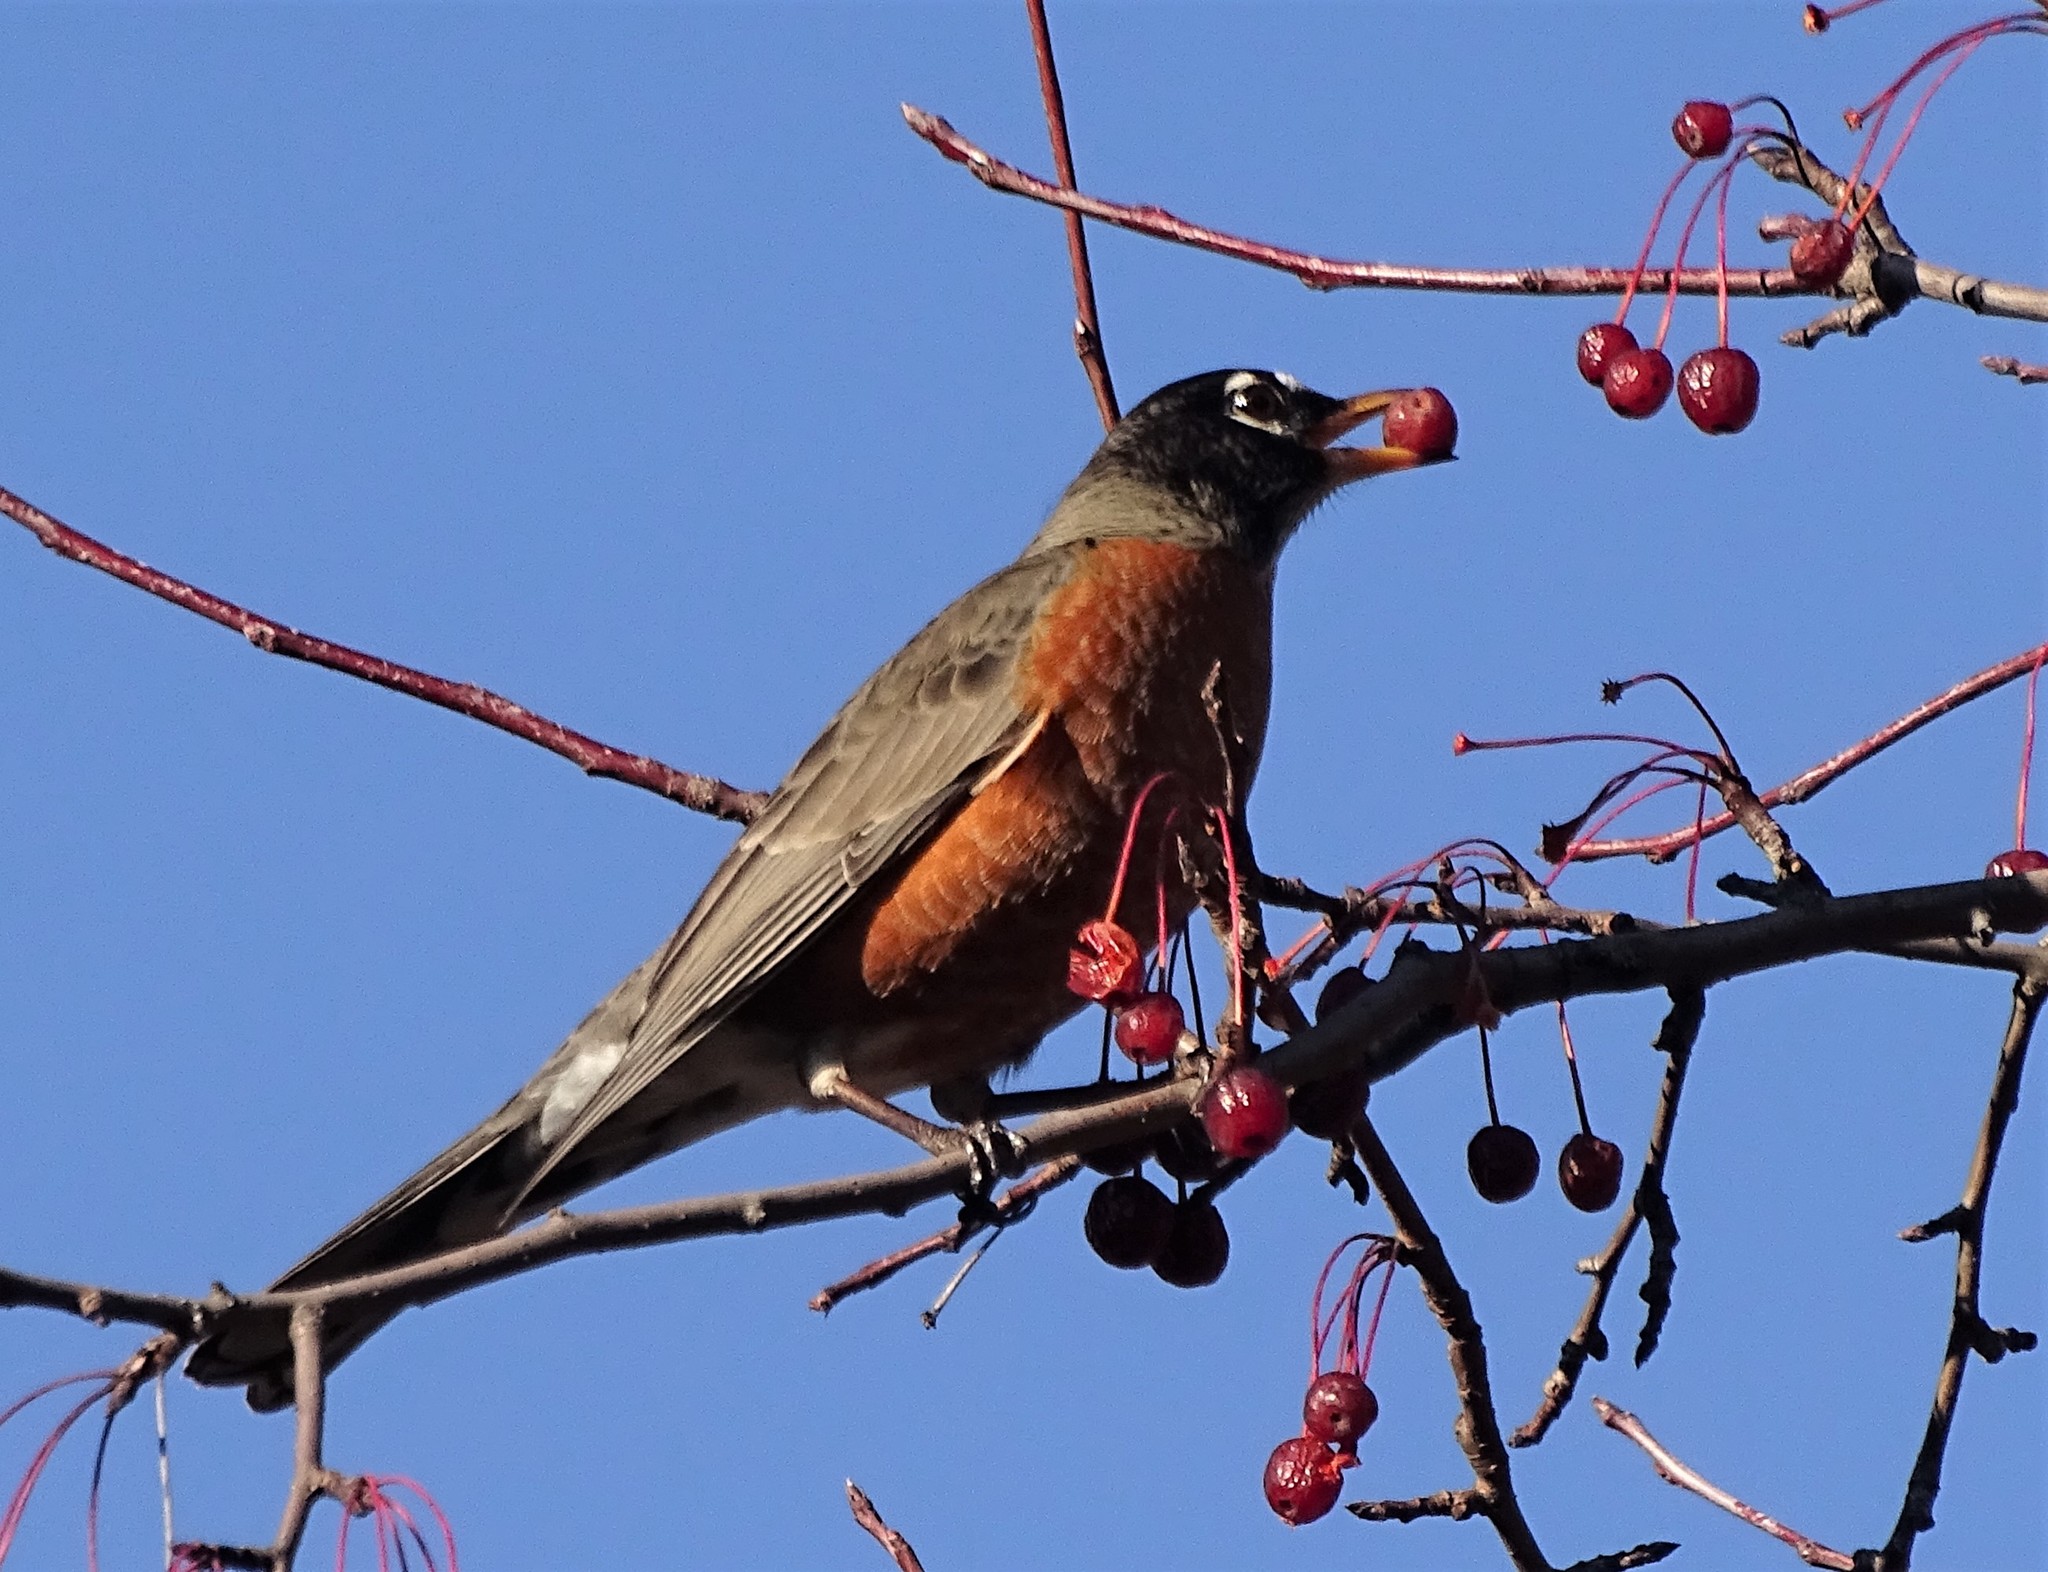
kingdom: Animalia
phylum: Chordata
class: Aves
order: Passeriformes
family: Turdidae
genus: Turdus
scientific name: Turdus migratorius
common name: American robin
